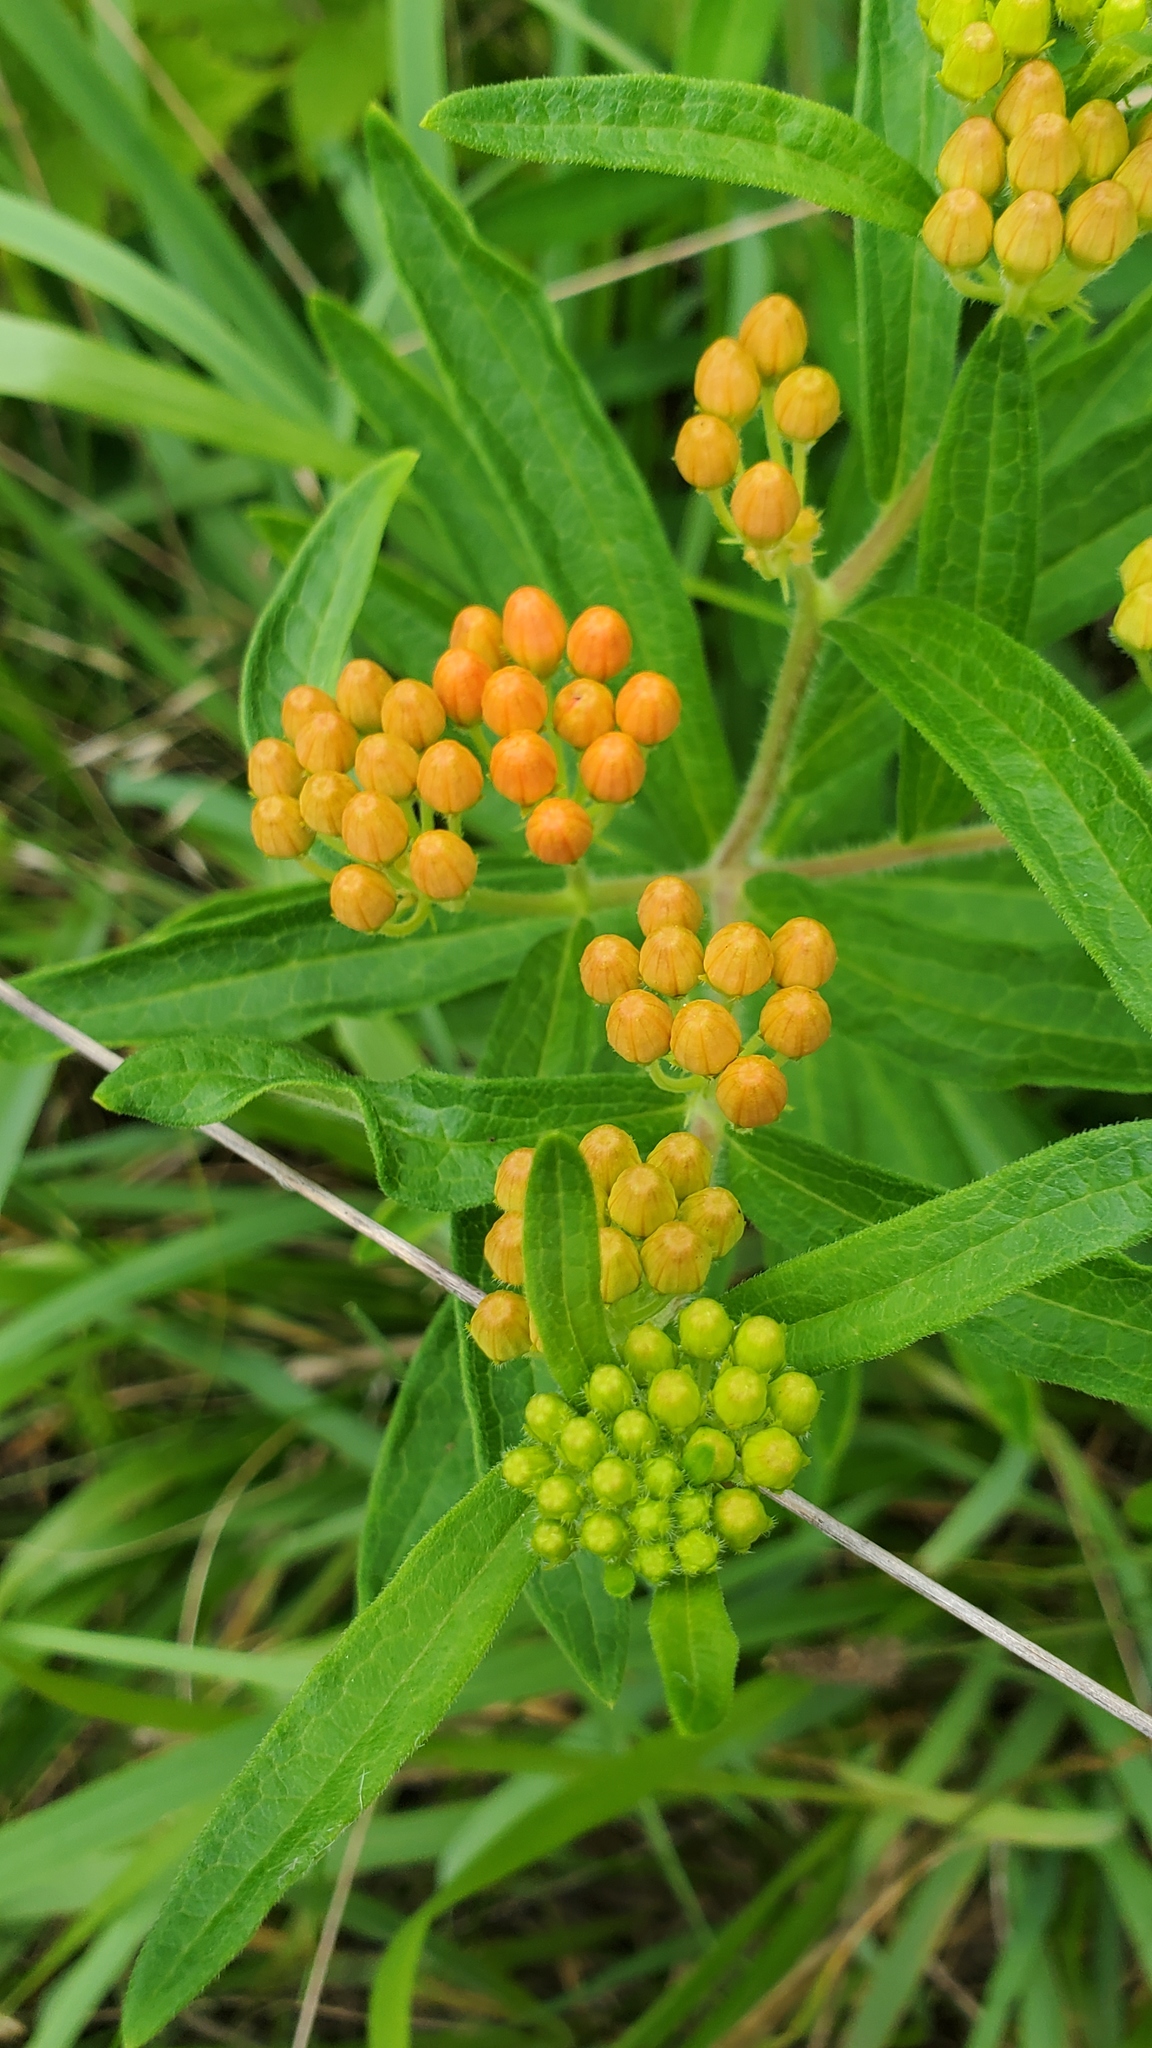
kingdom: Plantae
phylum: Tracheophyta
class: Magnoliopsida
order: Gentianales
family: Apocynaceae
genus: Asclepias
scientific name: Asclepias tuberosa
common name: Butterfly milkweed
